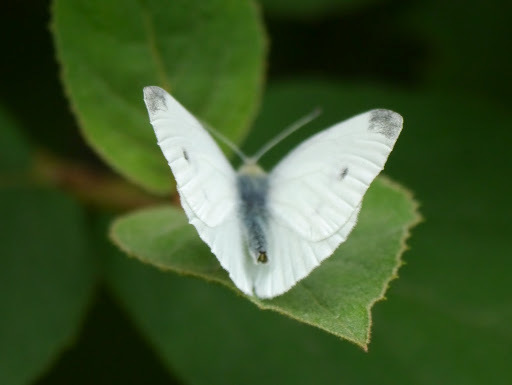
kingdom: Animalia
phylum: Arthropoda
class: Insecta
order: Lepidoptera
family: Pieridae
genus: Pieris
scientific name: Pieris rapae
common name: Small white
